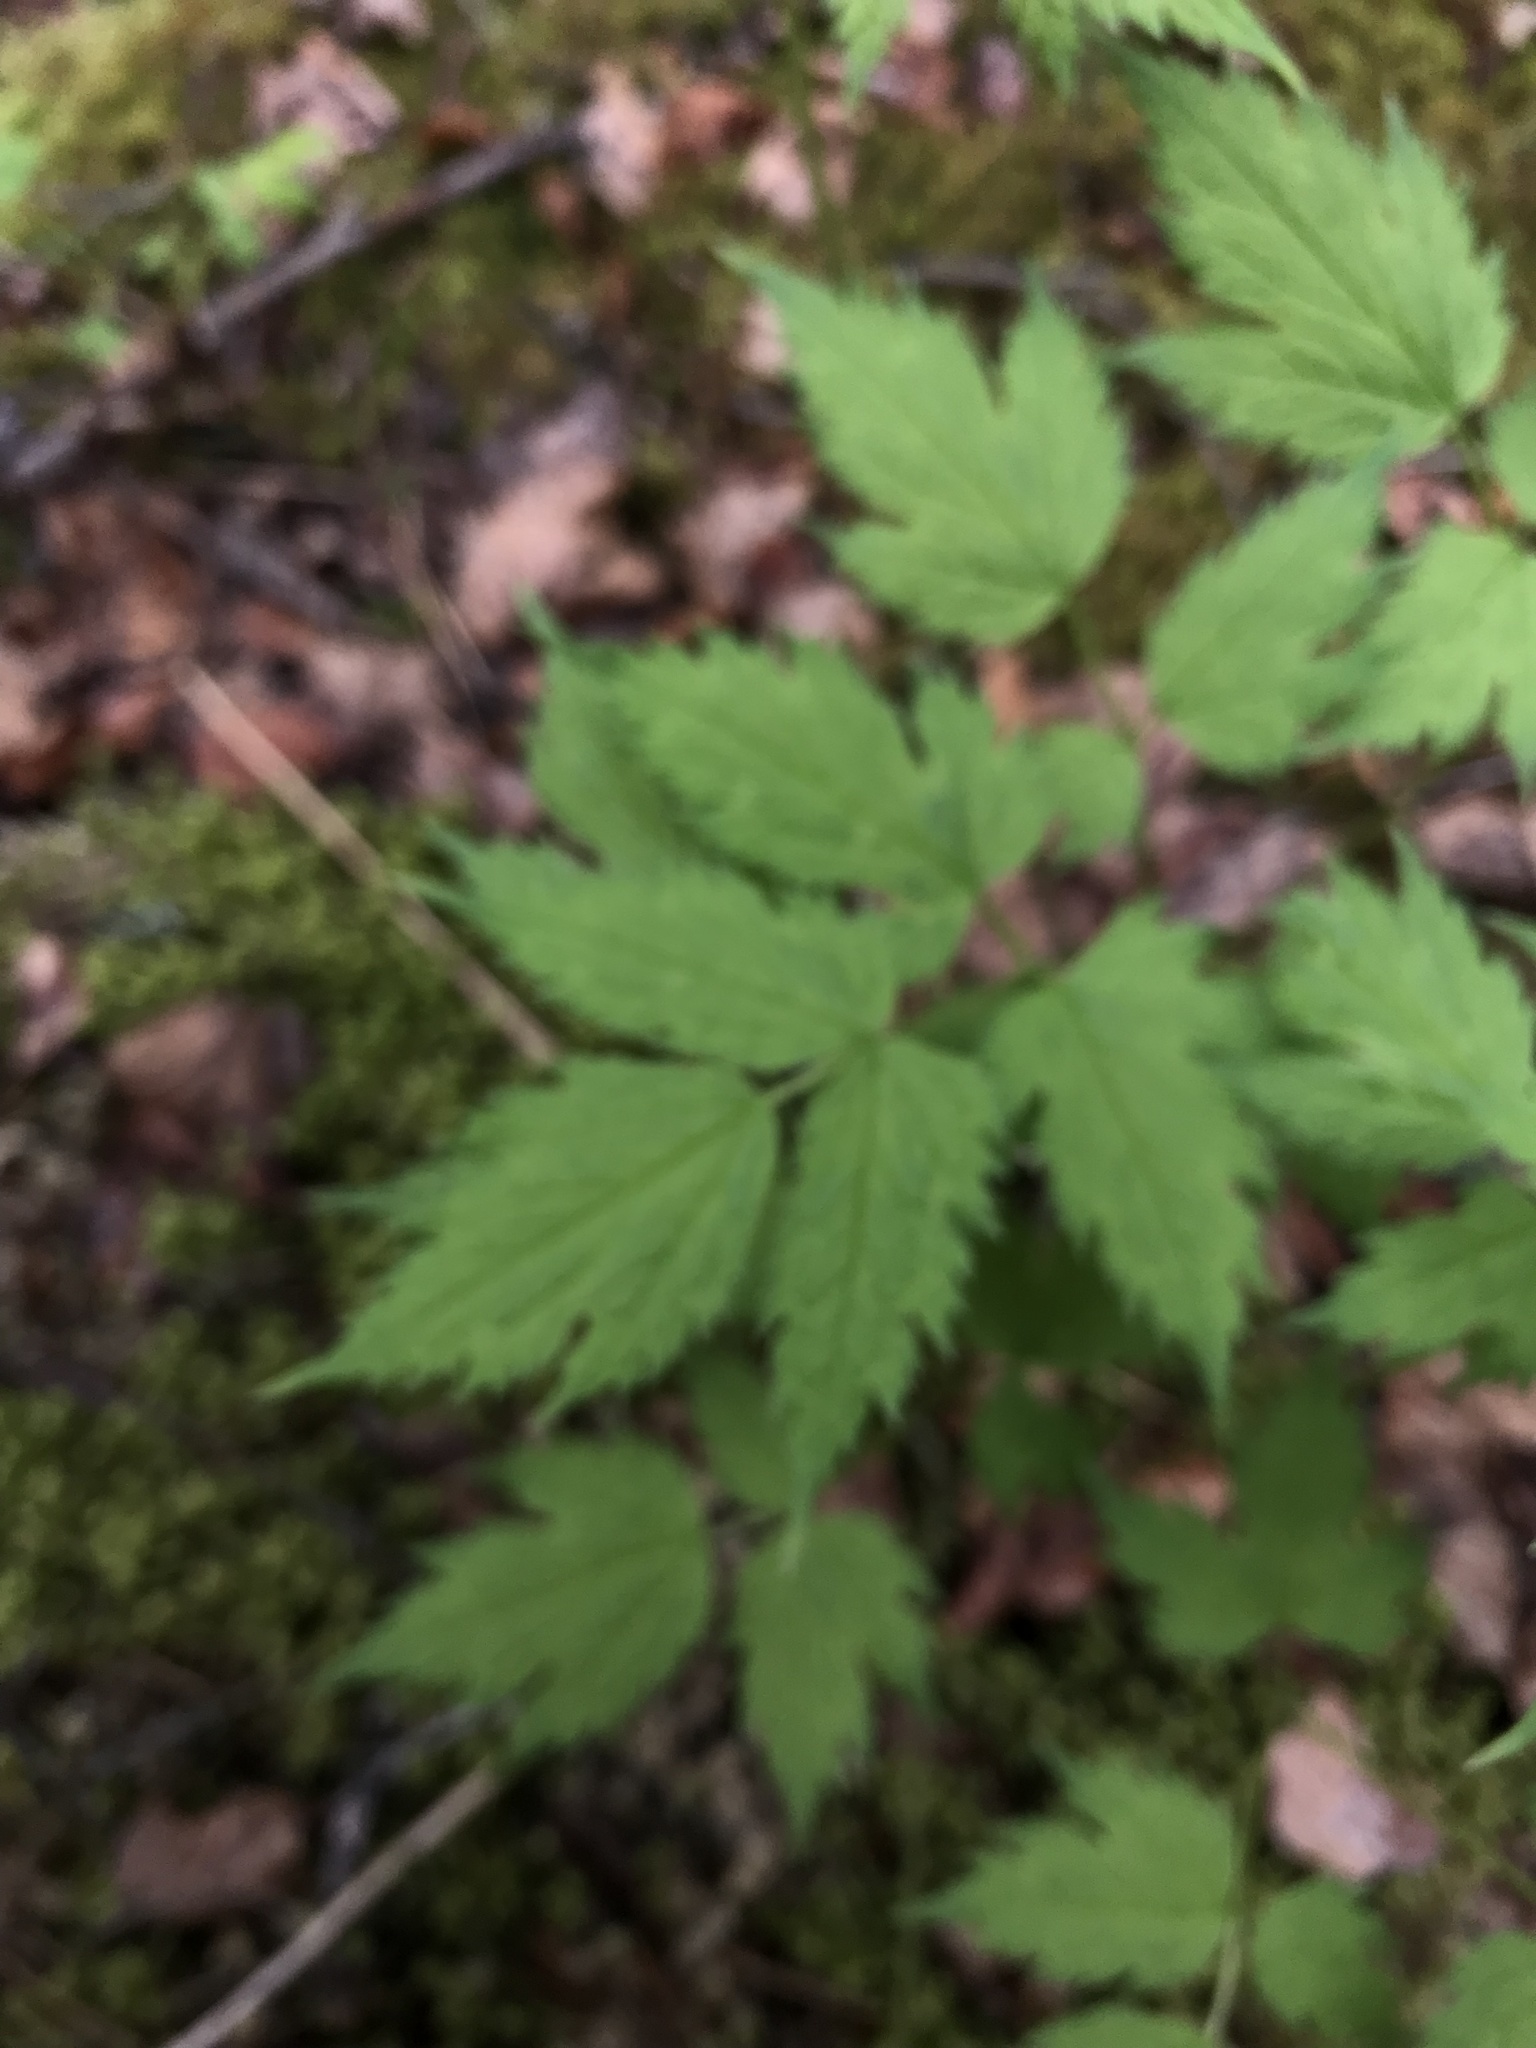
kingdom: Plantae
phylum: Tracheophyta
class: Magnoliopsida
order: Ranunculales
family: Ranunculaceae
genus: Actaea
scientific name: Actaea rubra
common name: Red baneberry
